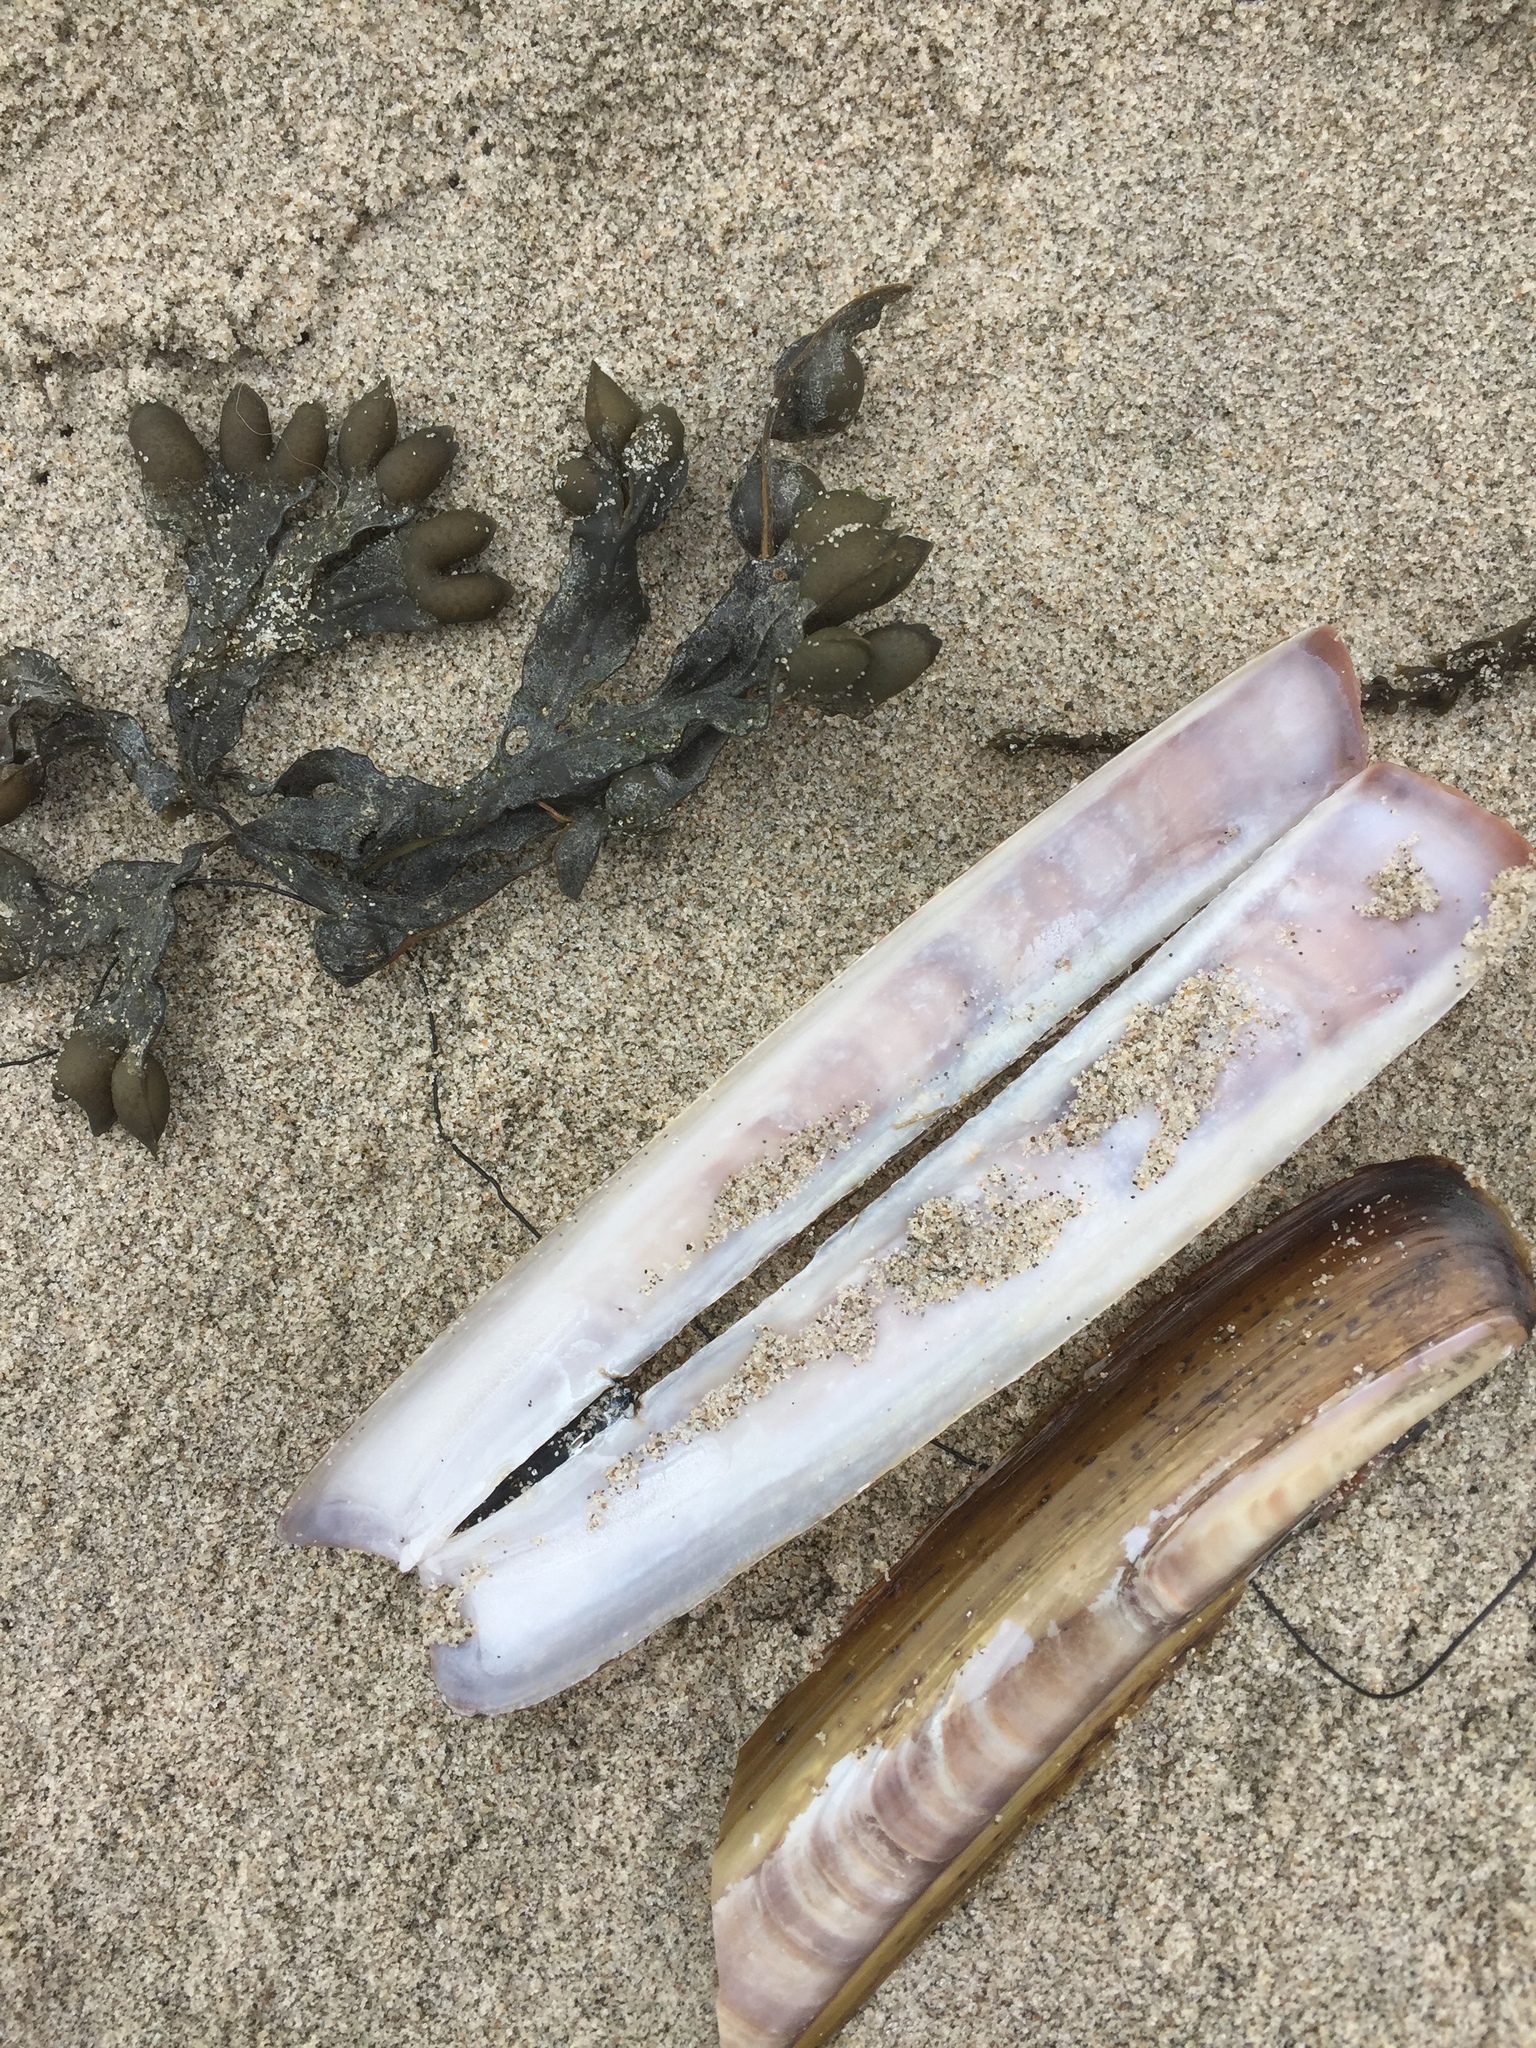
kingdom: Animalia
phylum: Mollusca
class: Bivalvia
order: Adapedonta
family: Pharidae
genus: Ensis
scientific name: Ensis leei
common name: American jack knife clam
